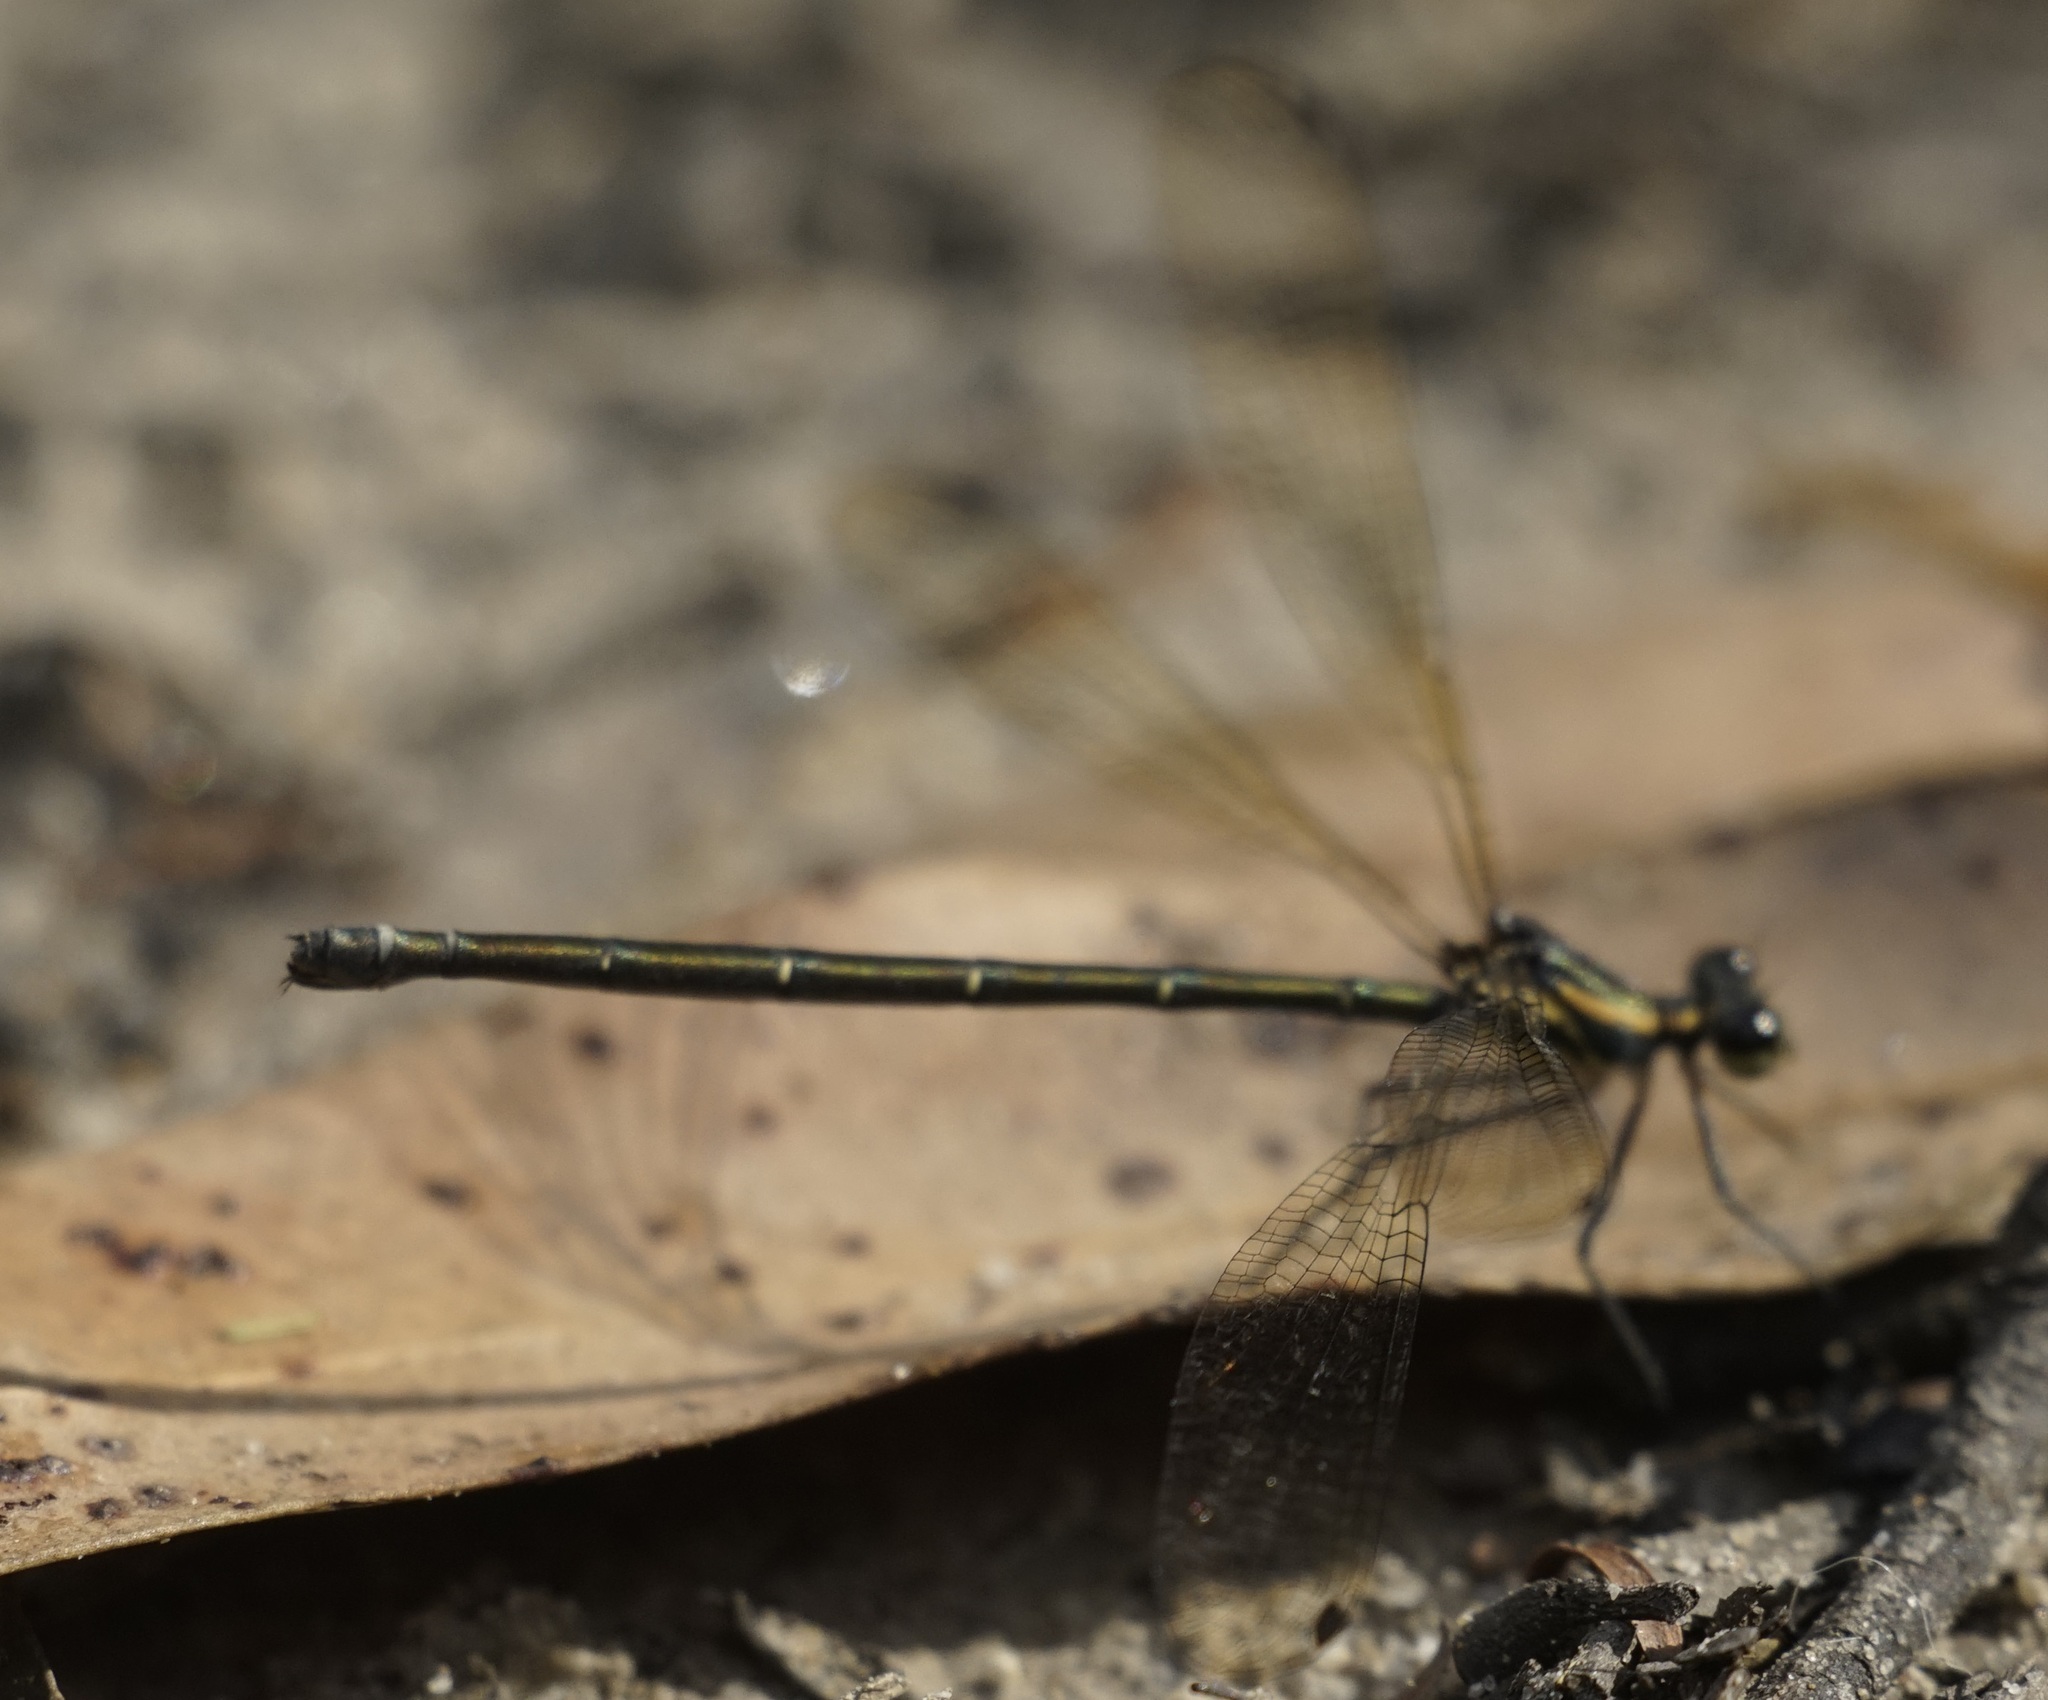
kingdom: Animalia
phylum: Arthropoda
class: Insecta
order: Odonata
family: Argiolestidae
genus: Austroargiolestes
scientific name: Austroargiolestes icteromelas
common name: Common flatwing
